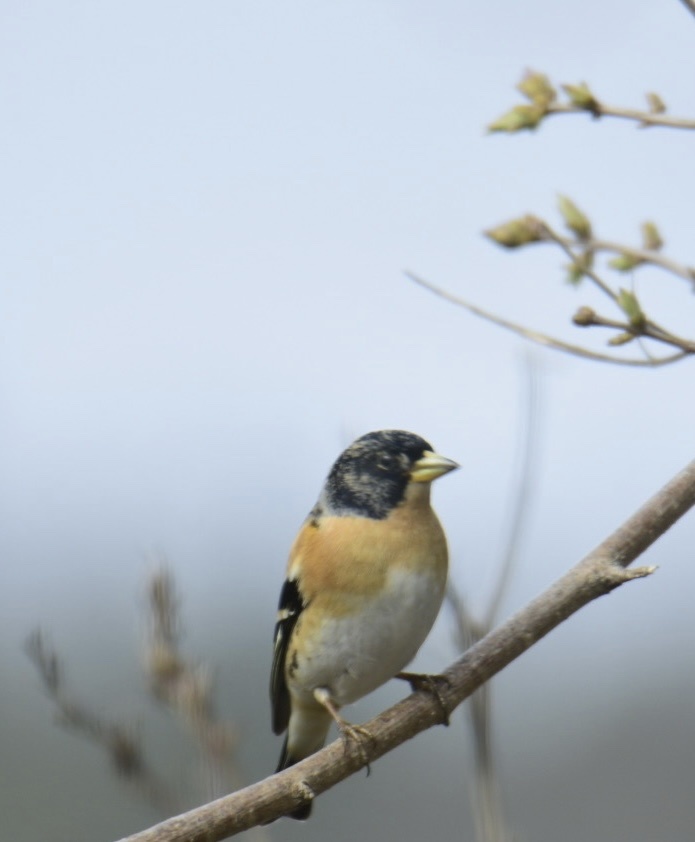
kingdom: Animalia
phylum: Chordata
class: Aves
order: Passeriformes
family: Fringillidae
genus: Fringilla
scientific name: Fringilla montifringilla
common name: Brambling
